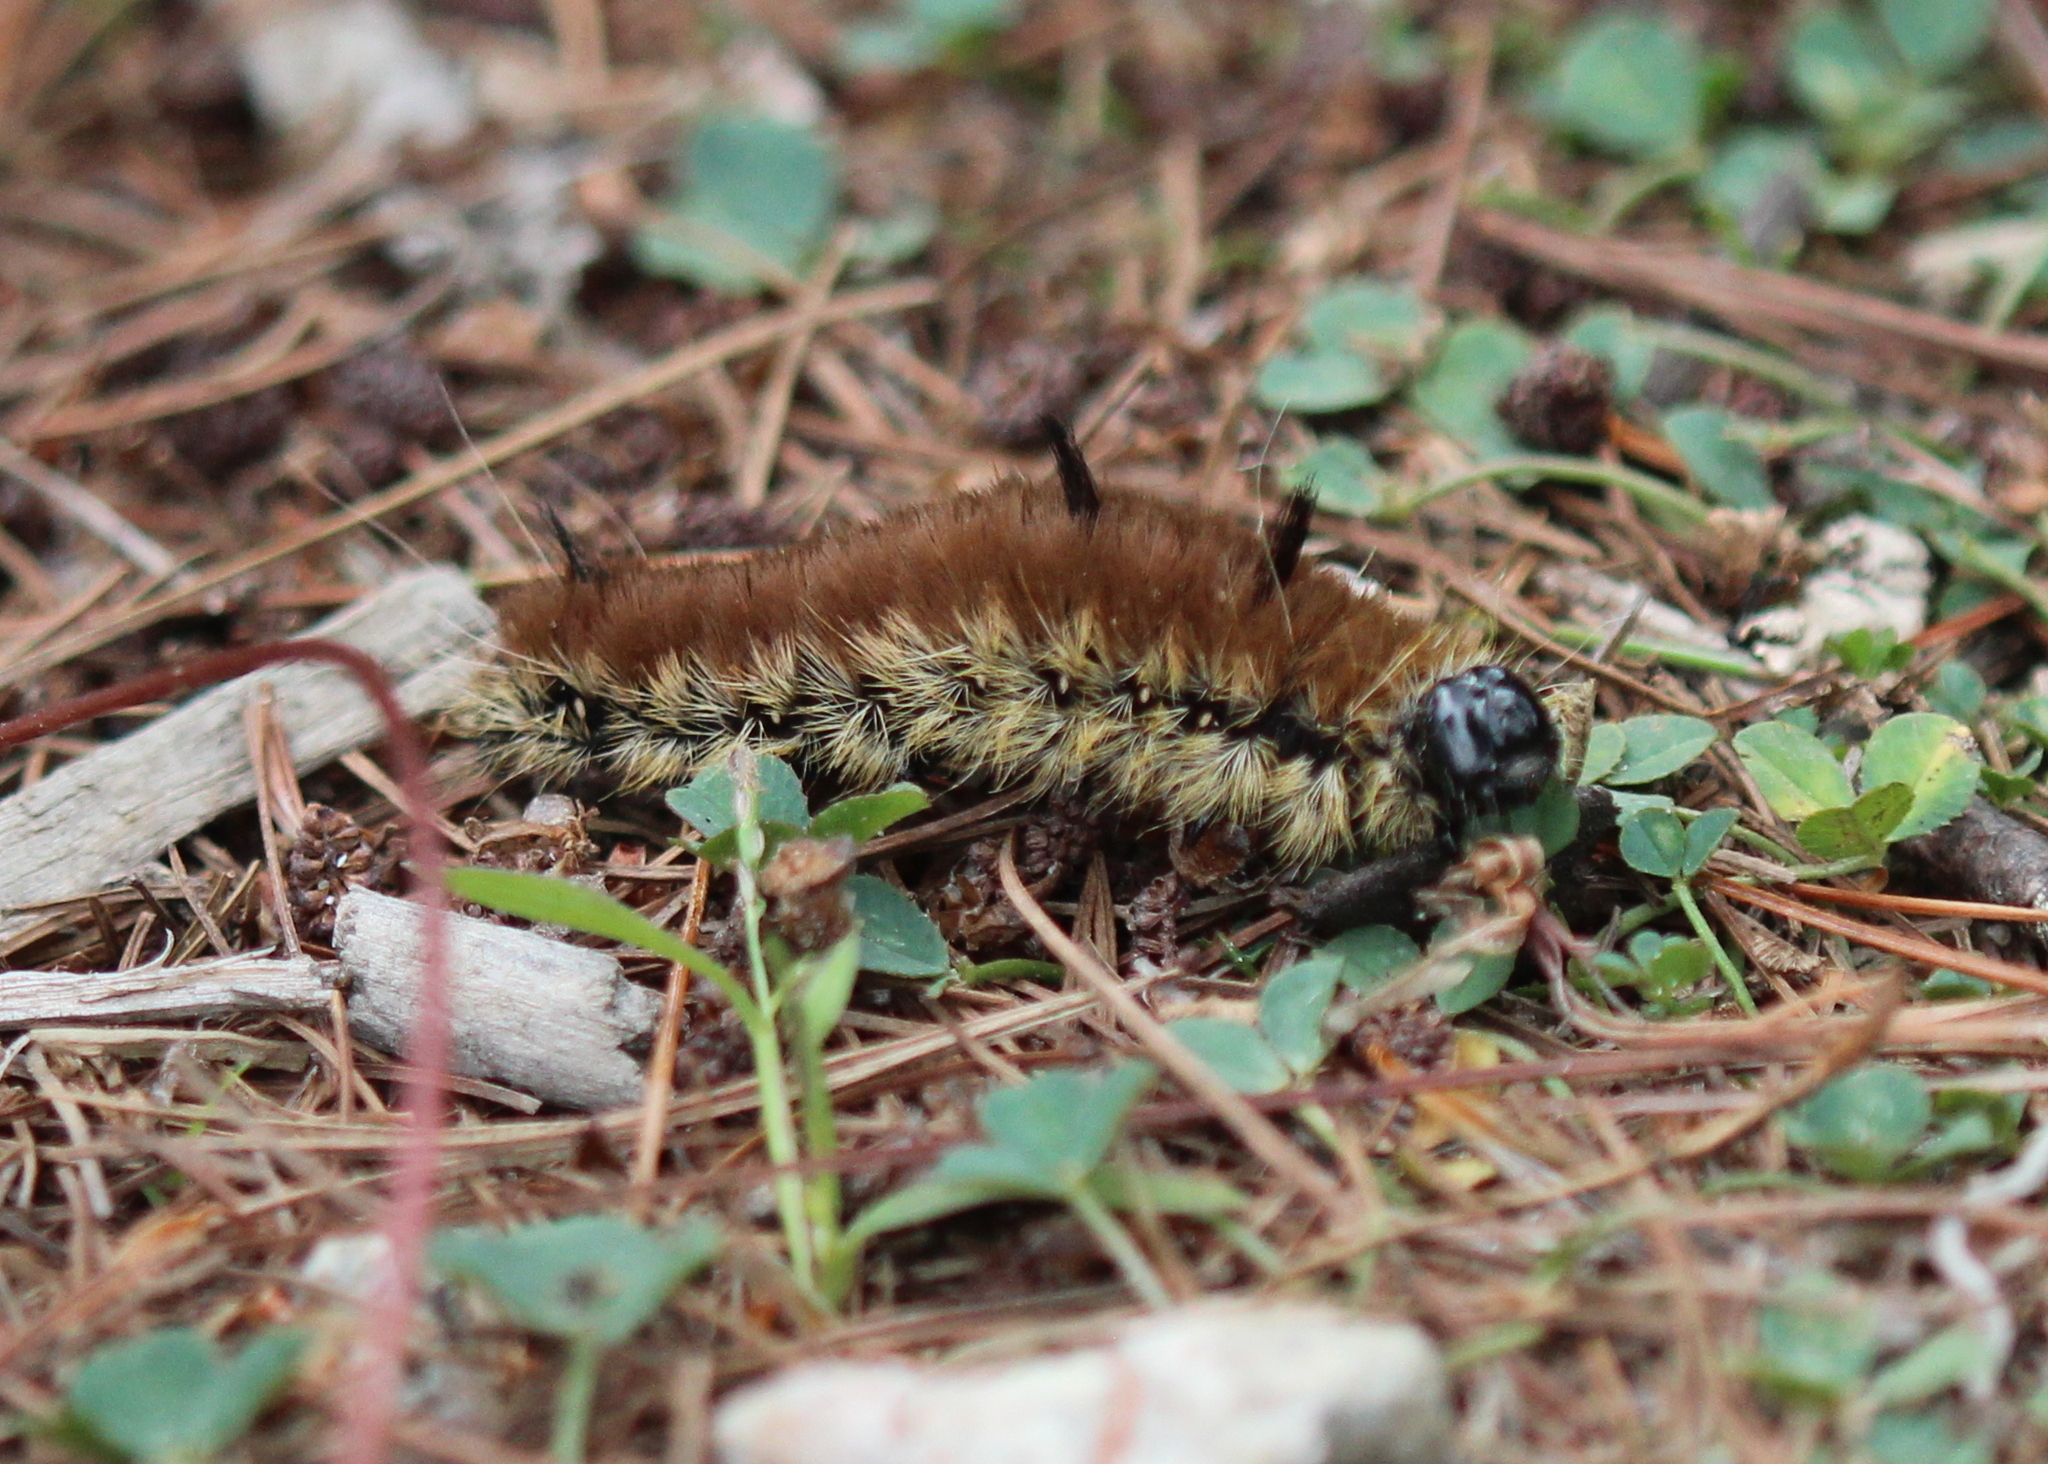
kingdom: Animalia
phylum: Arthropoda
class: Insecta
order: Lepidoptera
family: Noctuidae
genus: Acronicta
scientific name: Acronicta insita
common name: Large gray dagger
